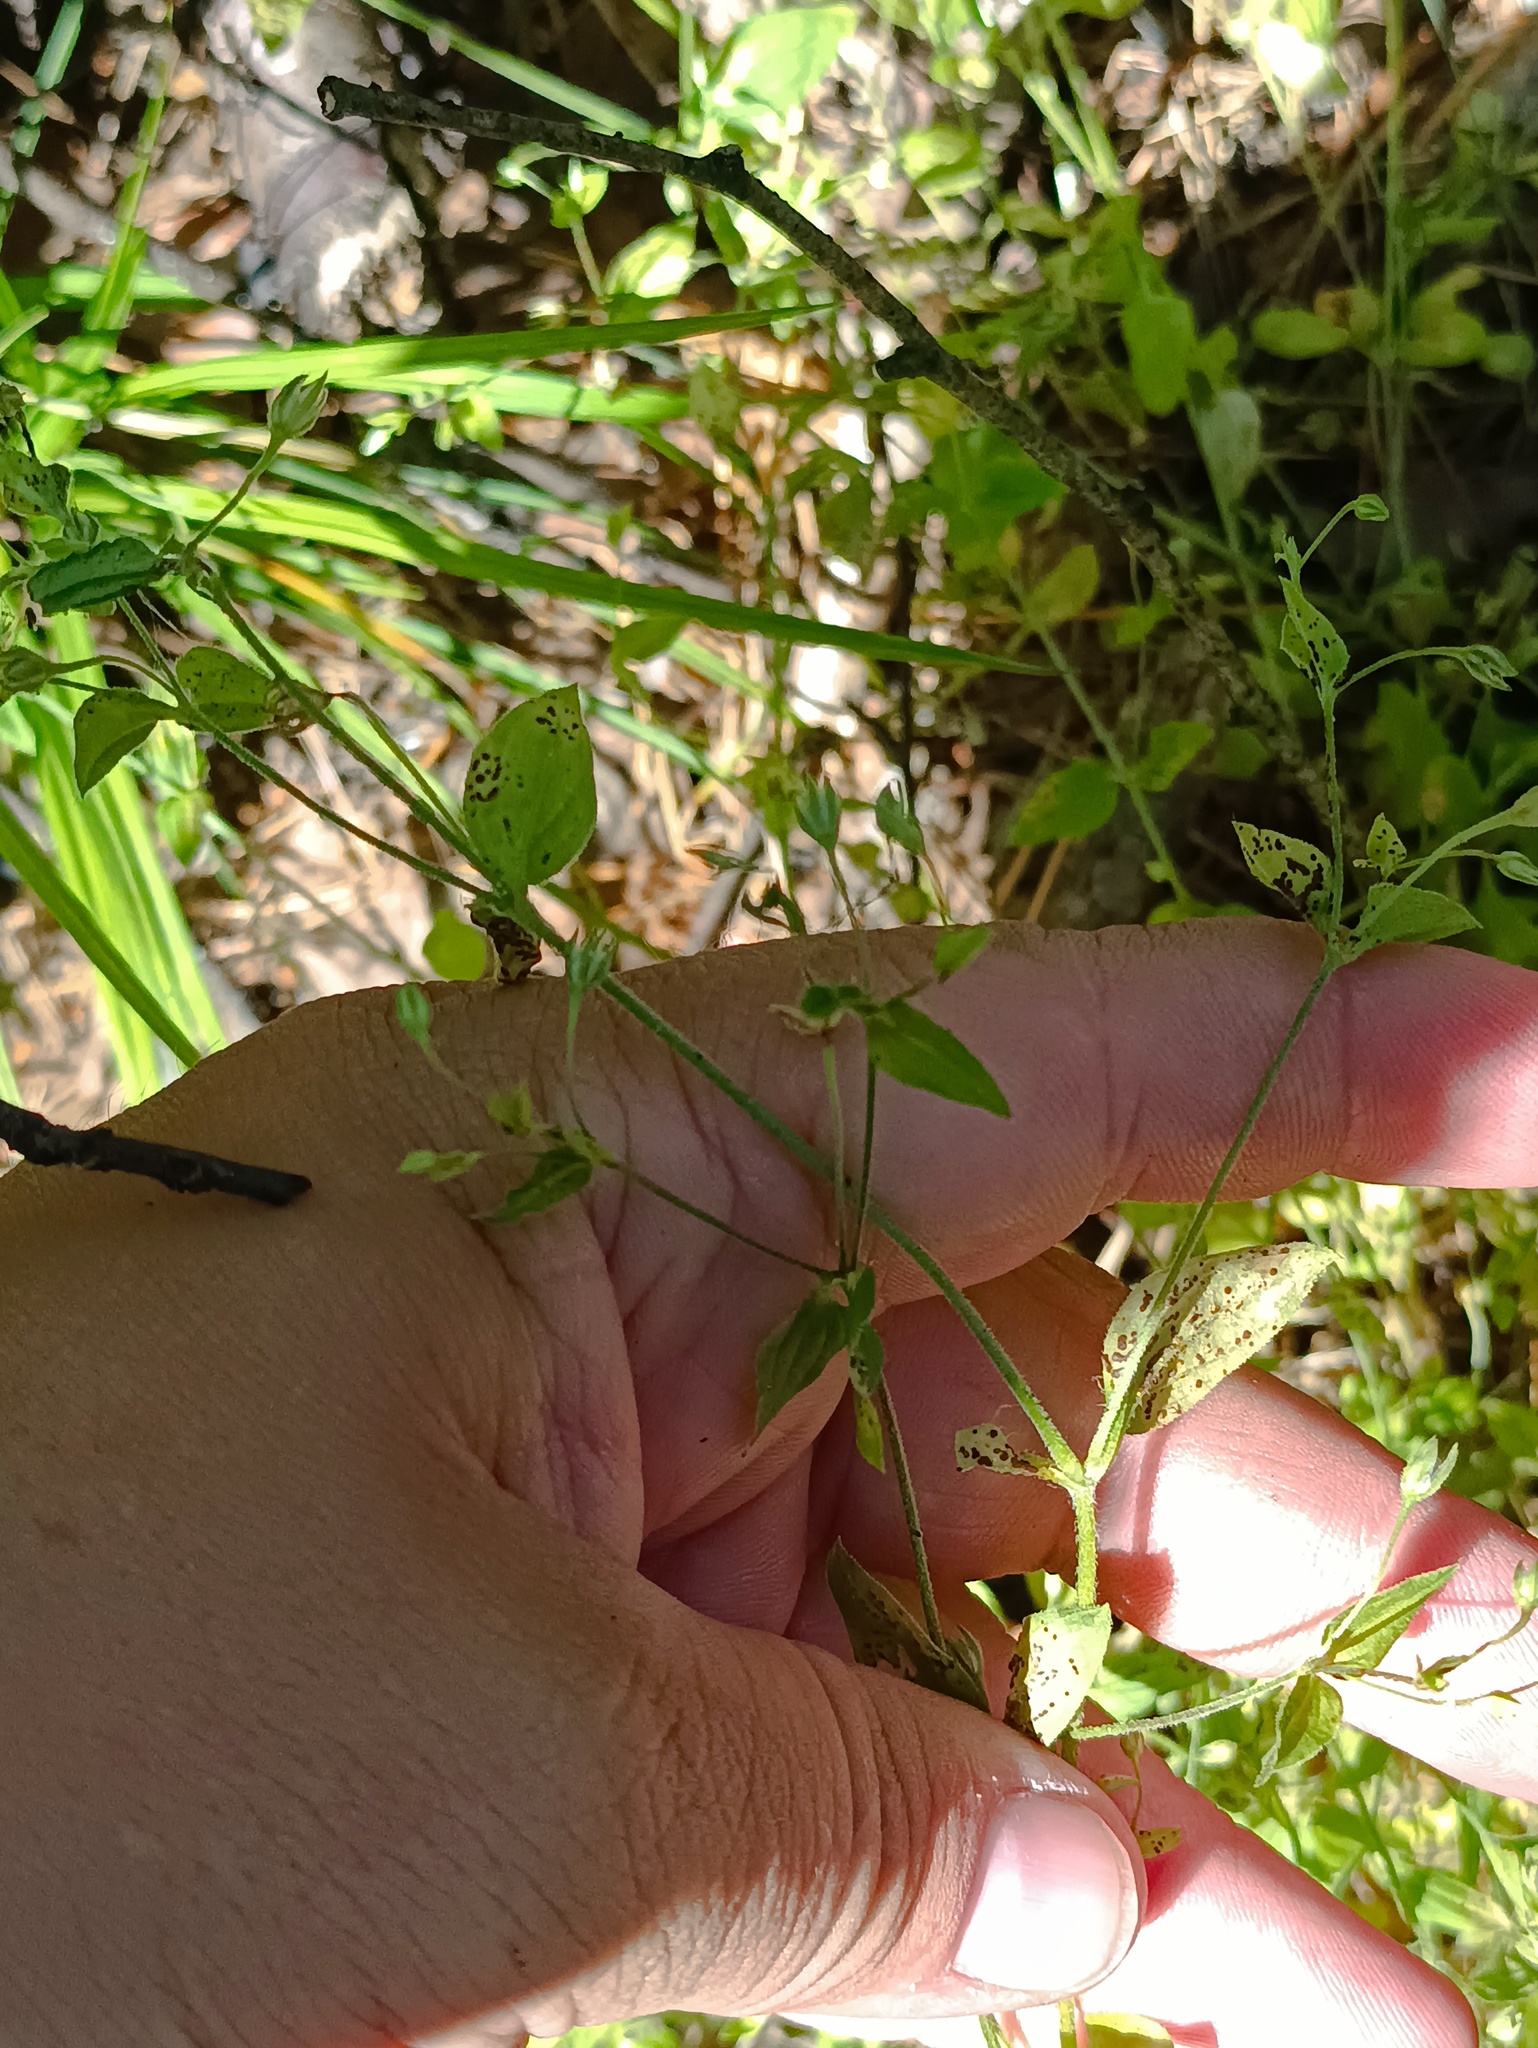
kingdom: Plantae
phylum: Tracheophyta
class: Magnoliopsida
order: Caryophyllales
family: Caryophyllaceae
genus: Moehringia
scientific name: Moehringia trinervia
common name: Three-nerved sandwort
